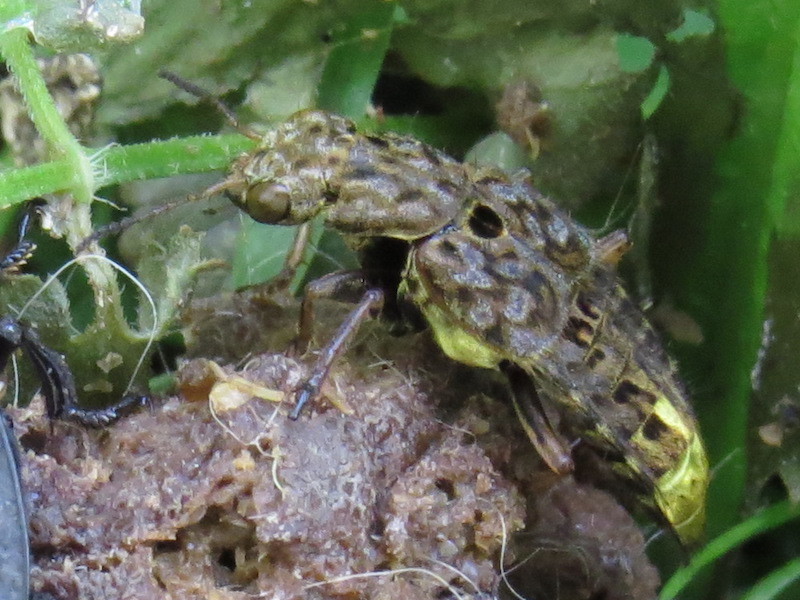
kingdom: Animalia
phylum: Arthropoda
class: Insecta
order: Coleoptera
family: Staphylinidae
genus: Ontholestes
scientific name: Ontholestes cingulatus
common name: Gold-and-brown rove beetle
